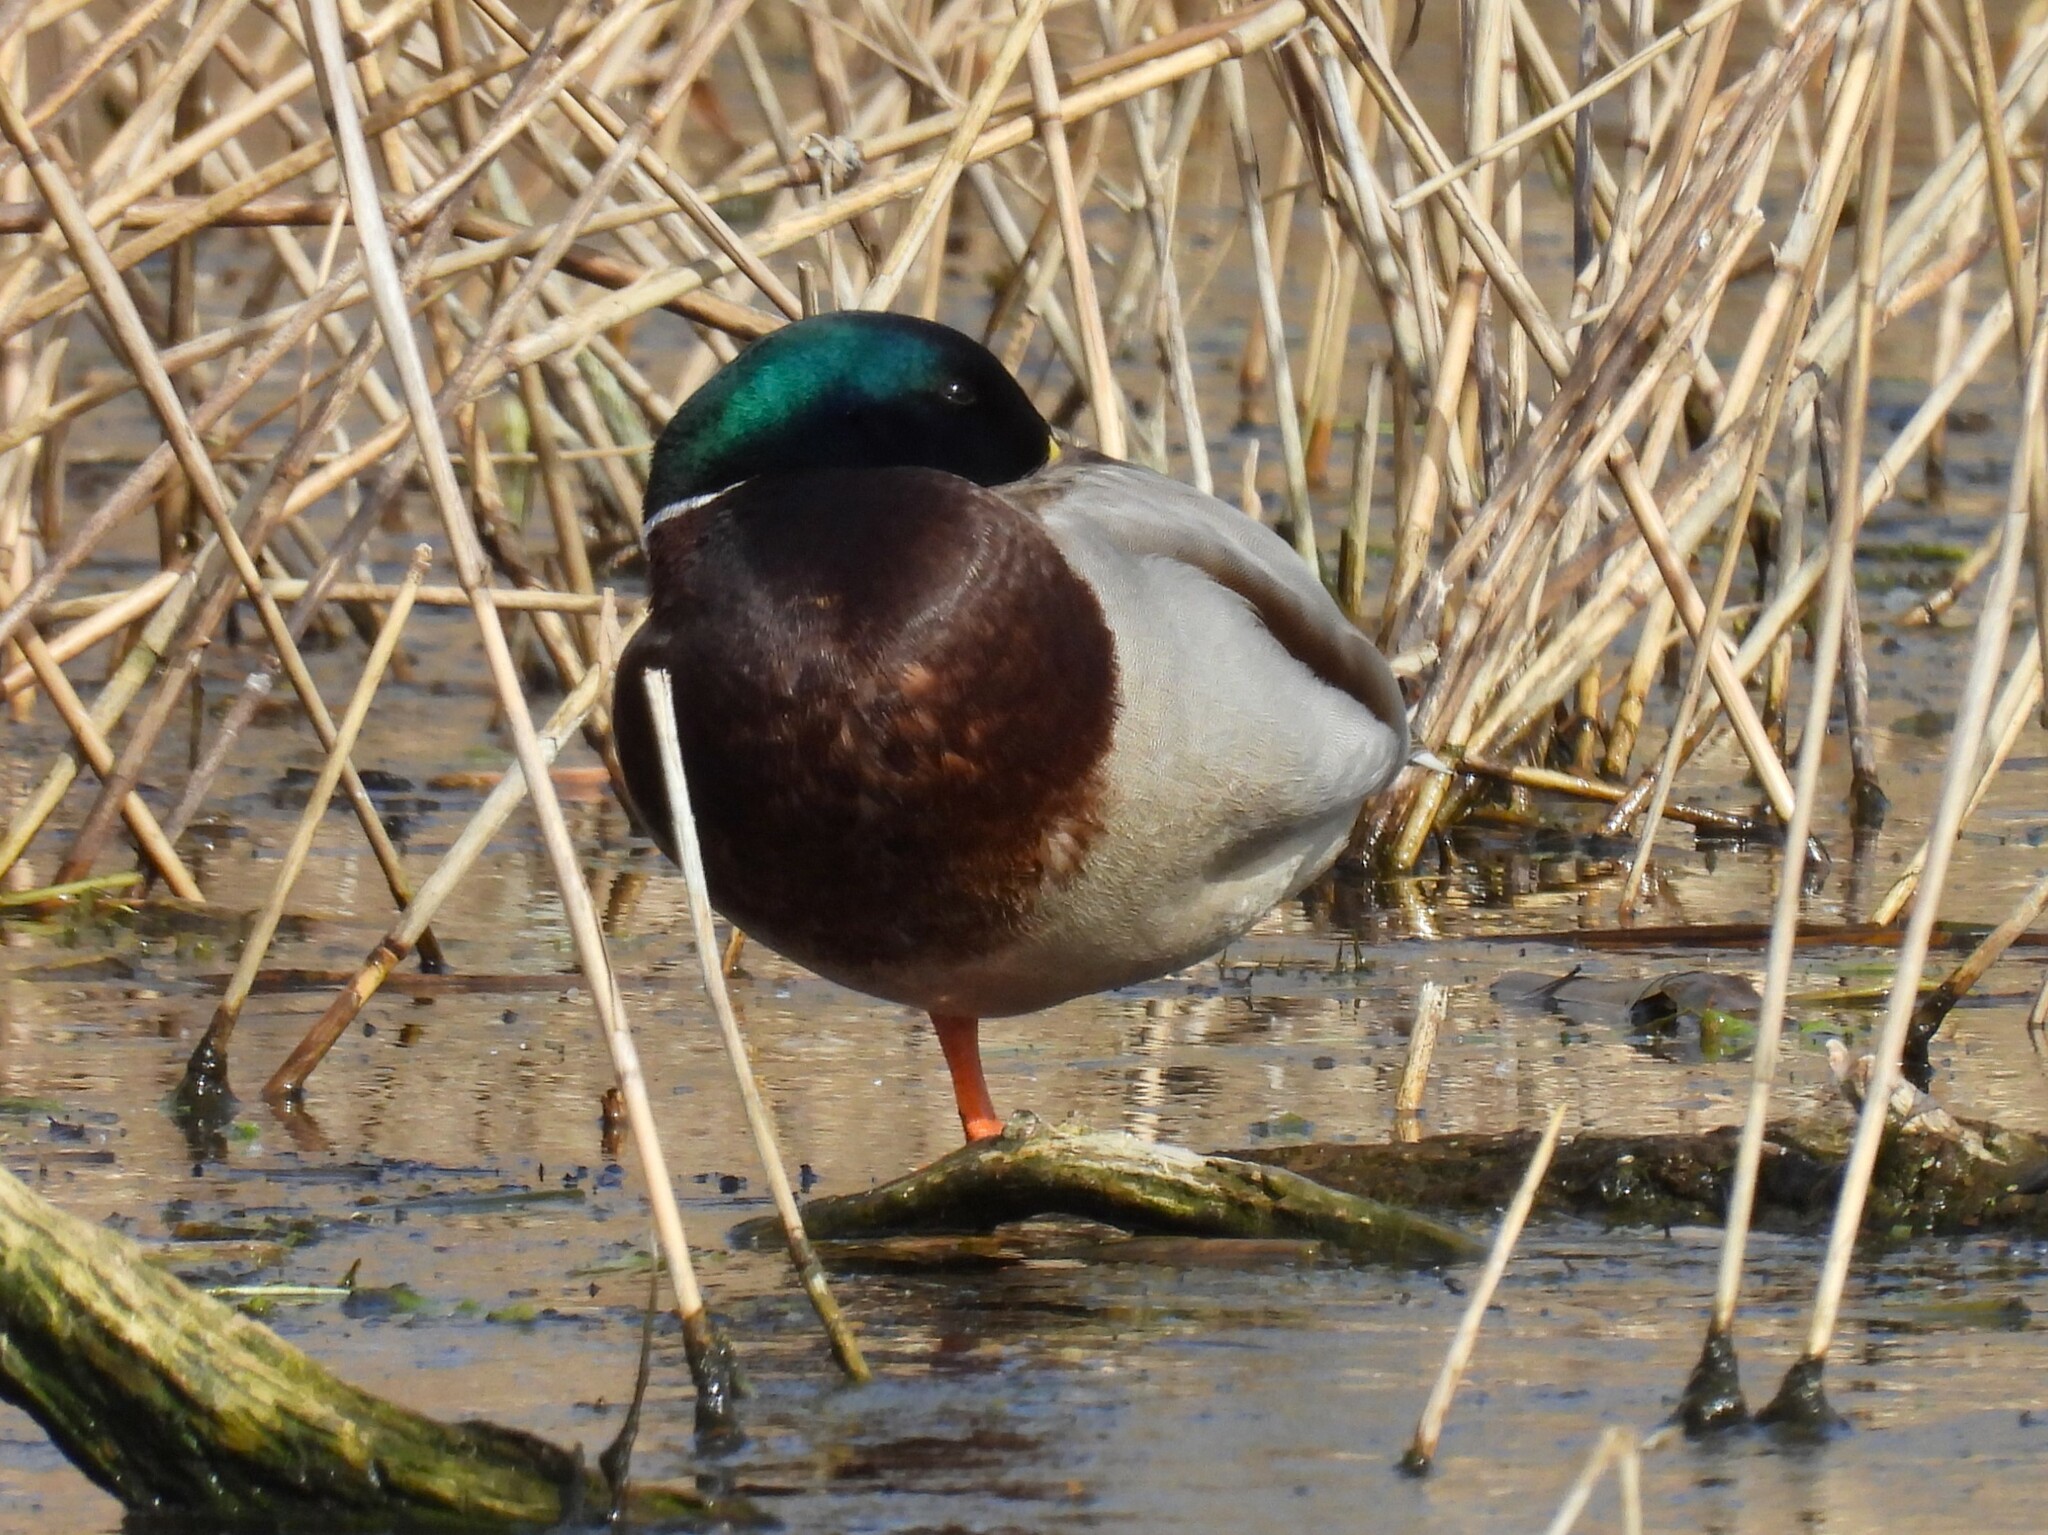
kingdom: Animalia
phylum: Chordata
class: Aves
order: Anseriformes
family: Anatidae
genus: Anas
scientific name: Anas platyrhynchos
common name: Mallard
